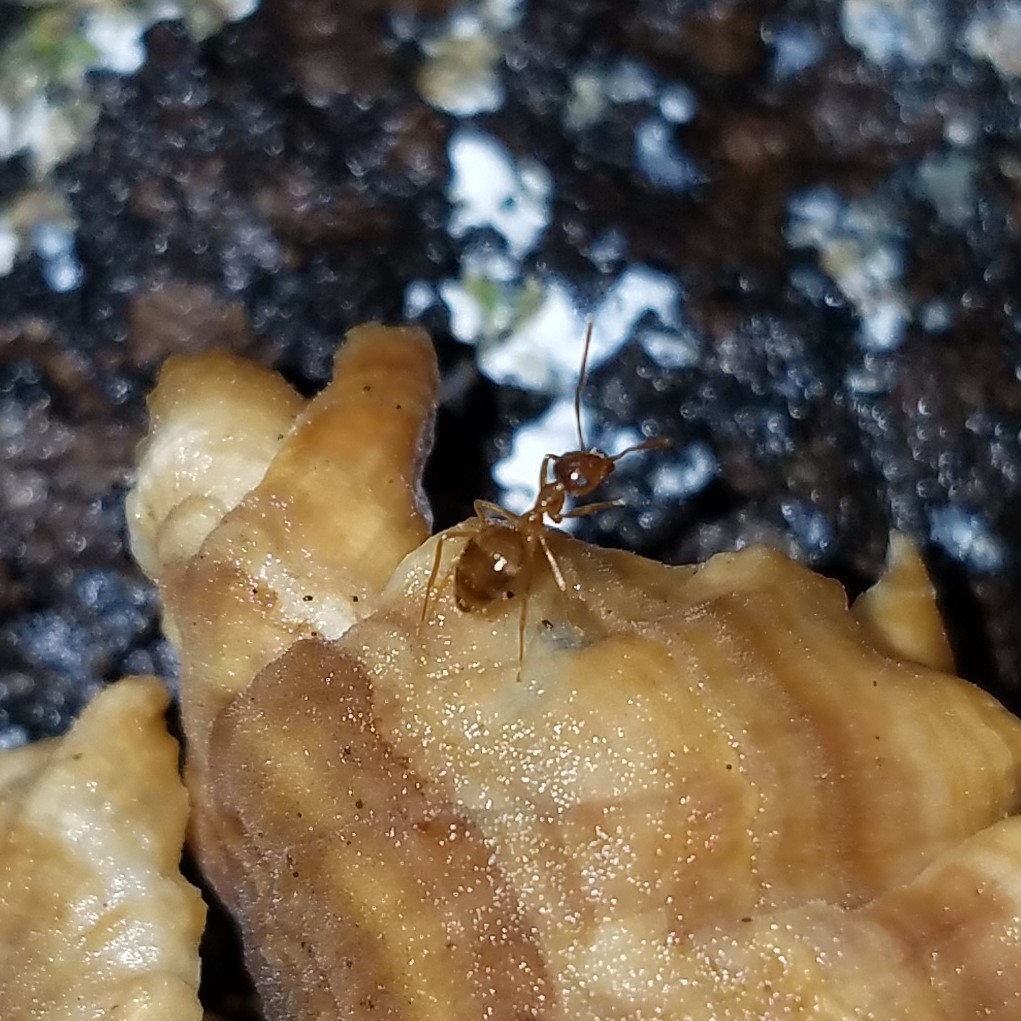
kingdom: Animalia
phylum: Arthropoda
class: Insecta
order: Hymenoptera
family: Formicidae
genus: Prenolepis
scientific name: Prenolepis imparis
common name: Small honey ant
